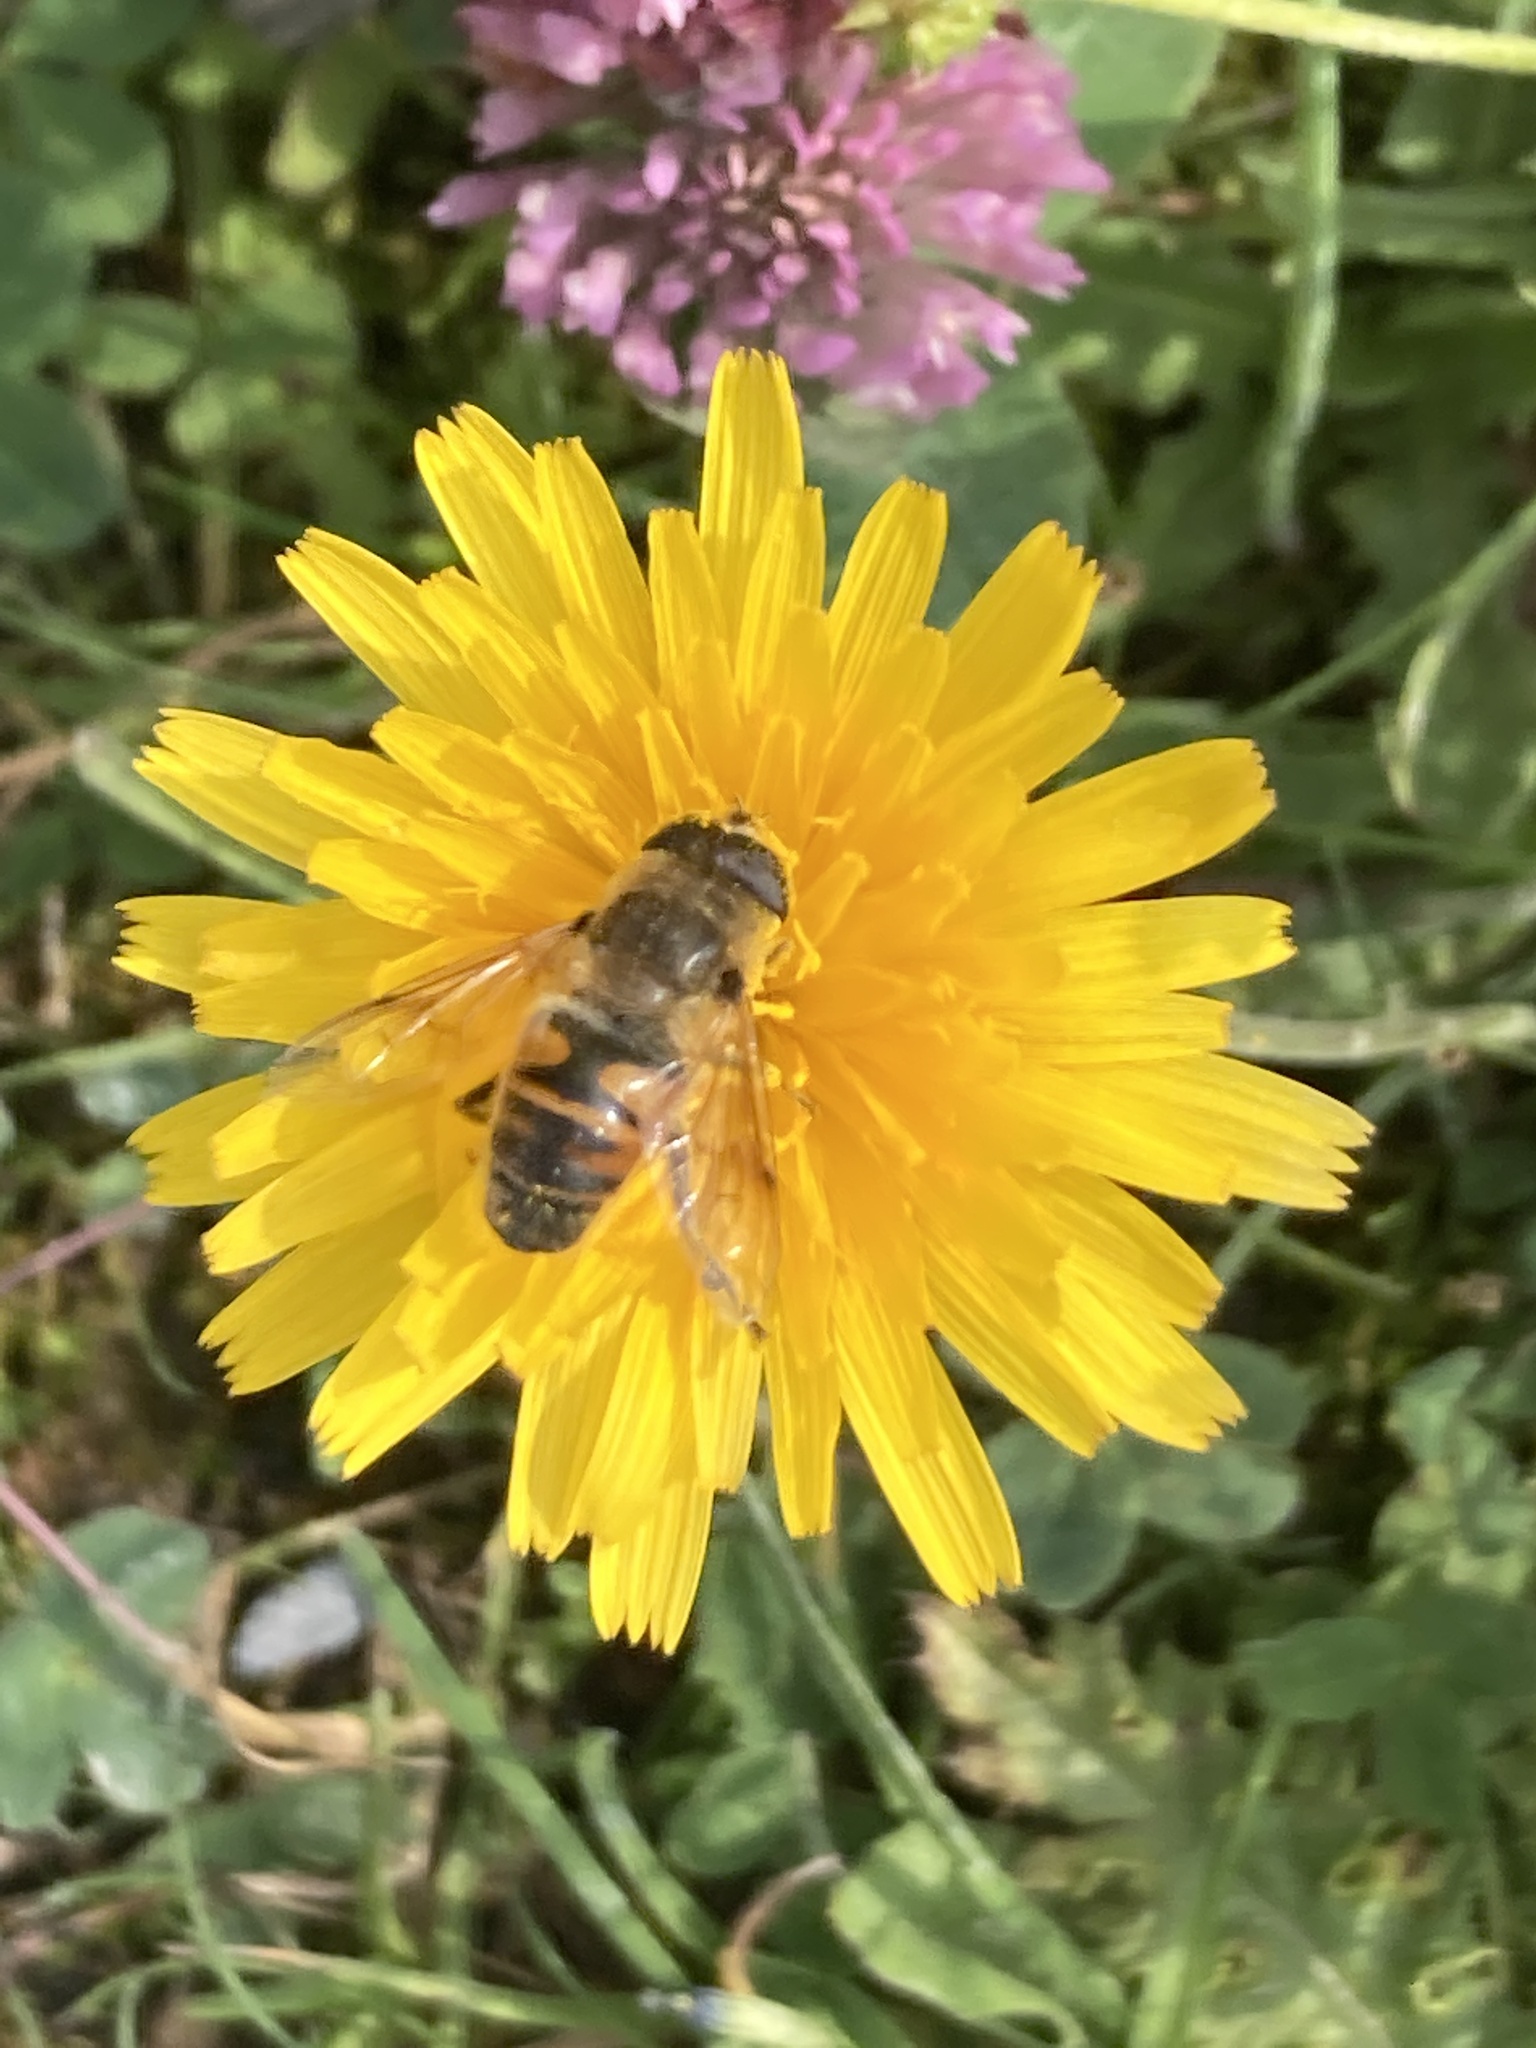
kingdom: Animalia
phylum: Arthropoda
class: Insecta
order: Diptera
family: Syrphidae
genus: Eristalis
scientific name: Eristalis tenax
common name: Drone fly
